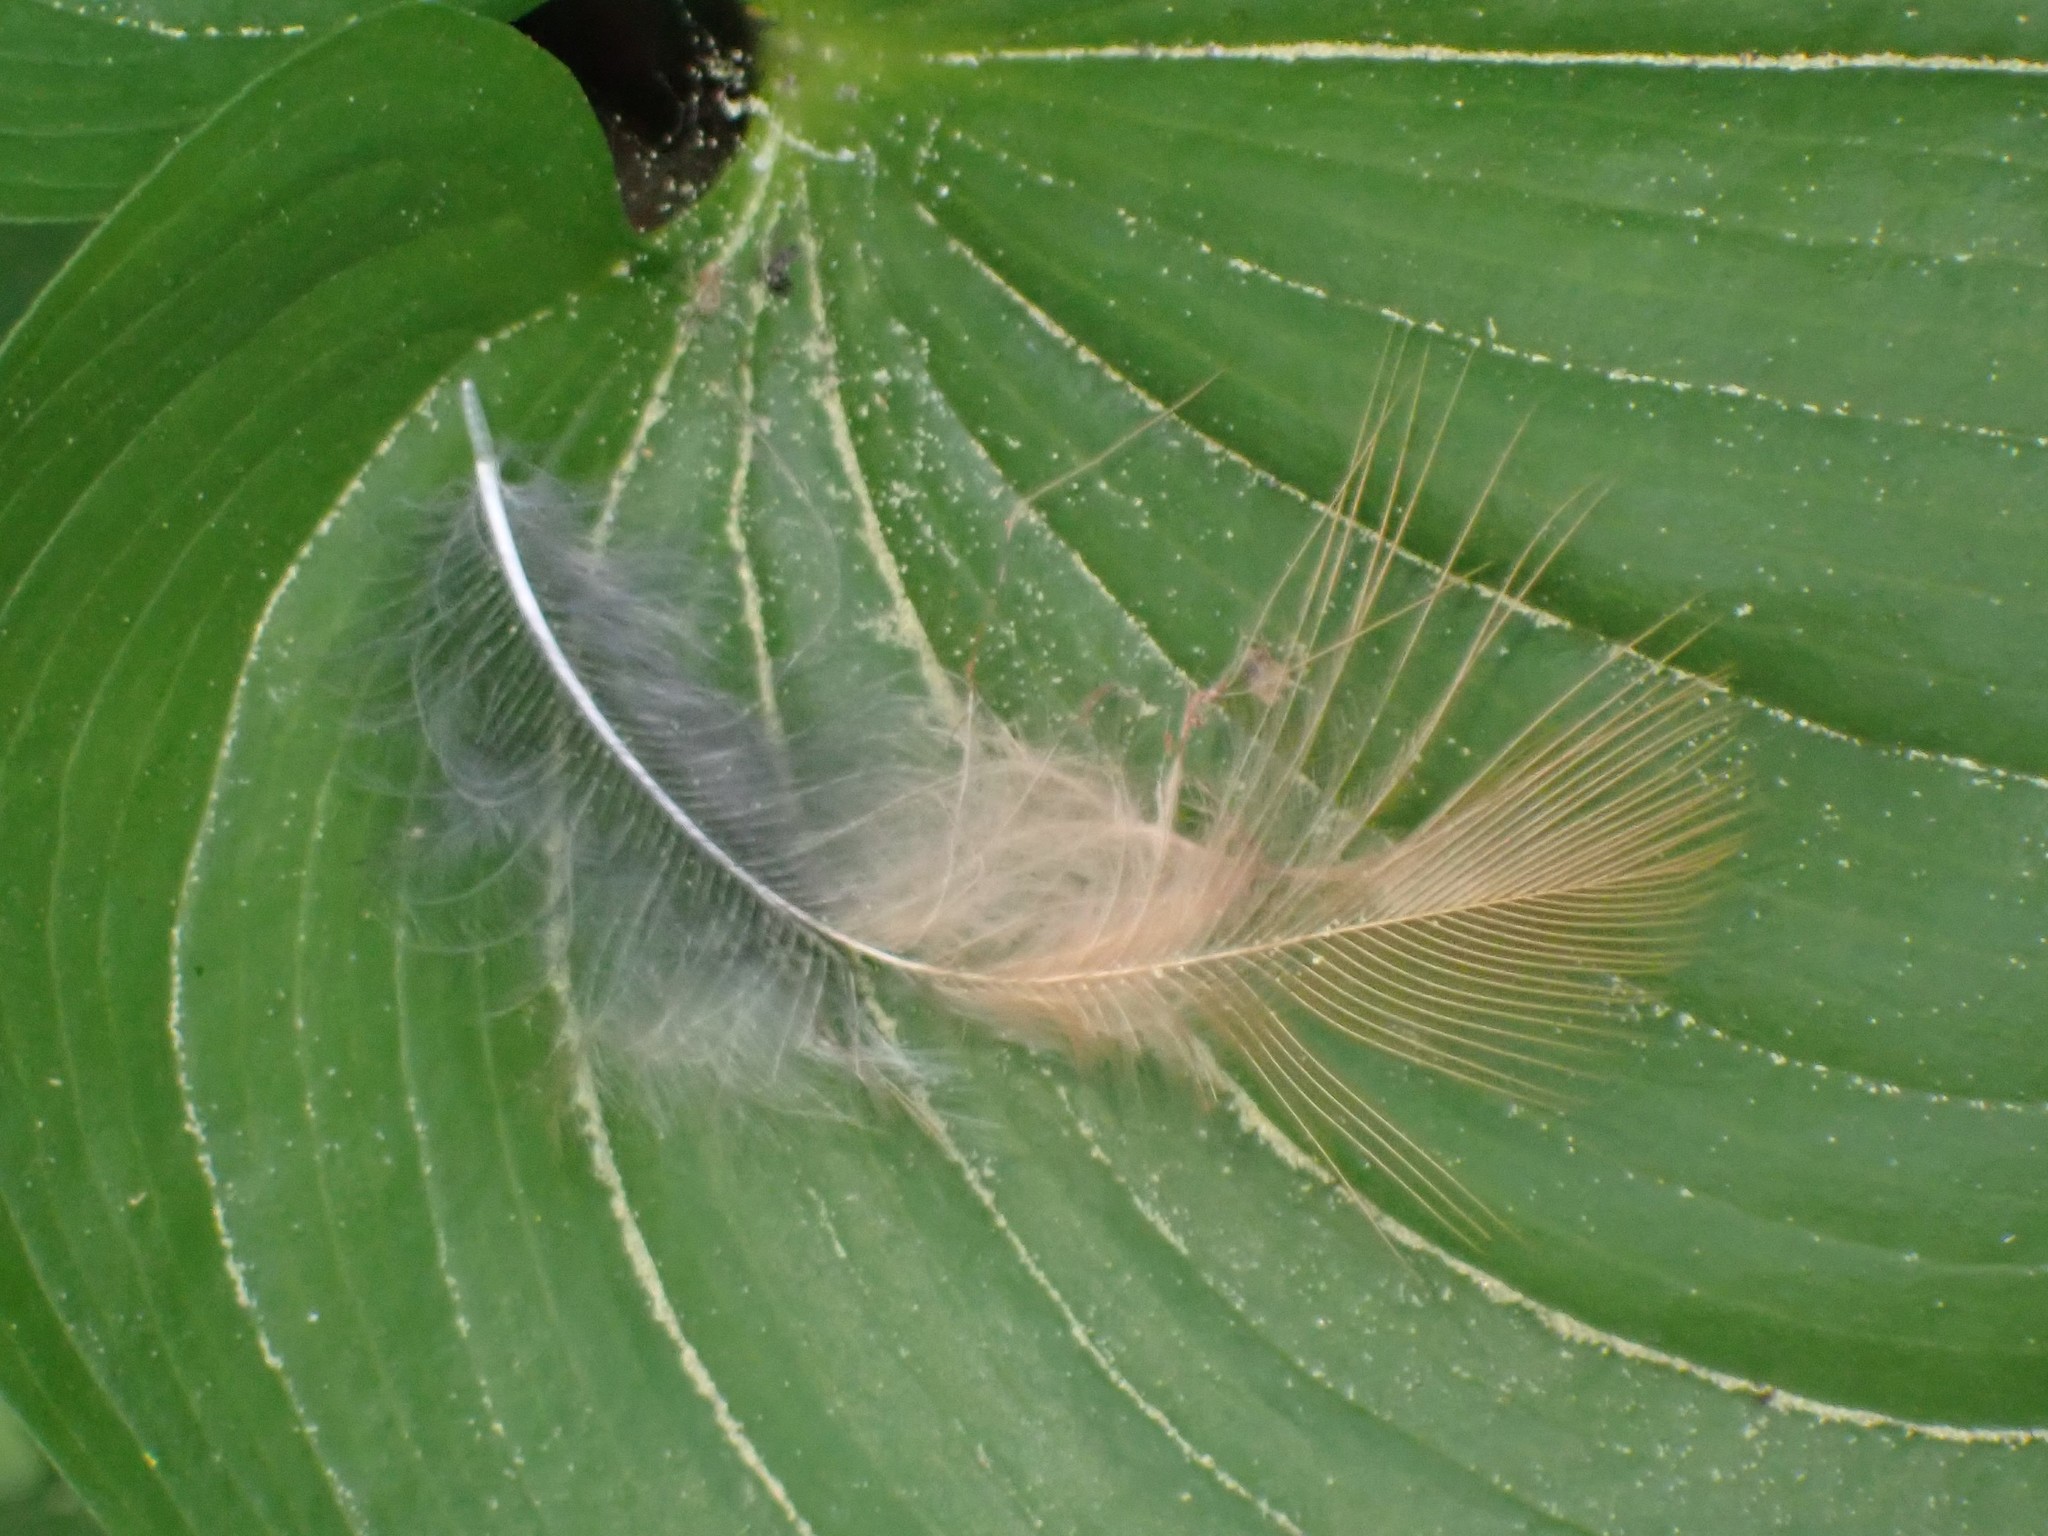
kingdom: Animalia
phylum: Chordata
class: Aves
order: Passeriformes
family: Turdidae
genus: Turdus
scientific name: Turdus migratorius
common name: American robin
